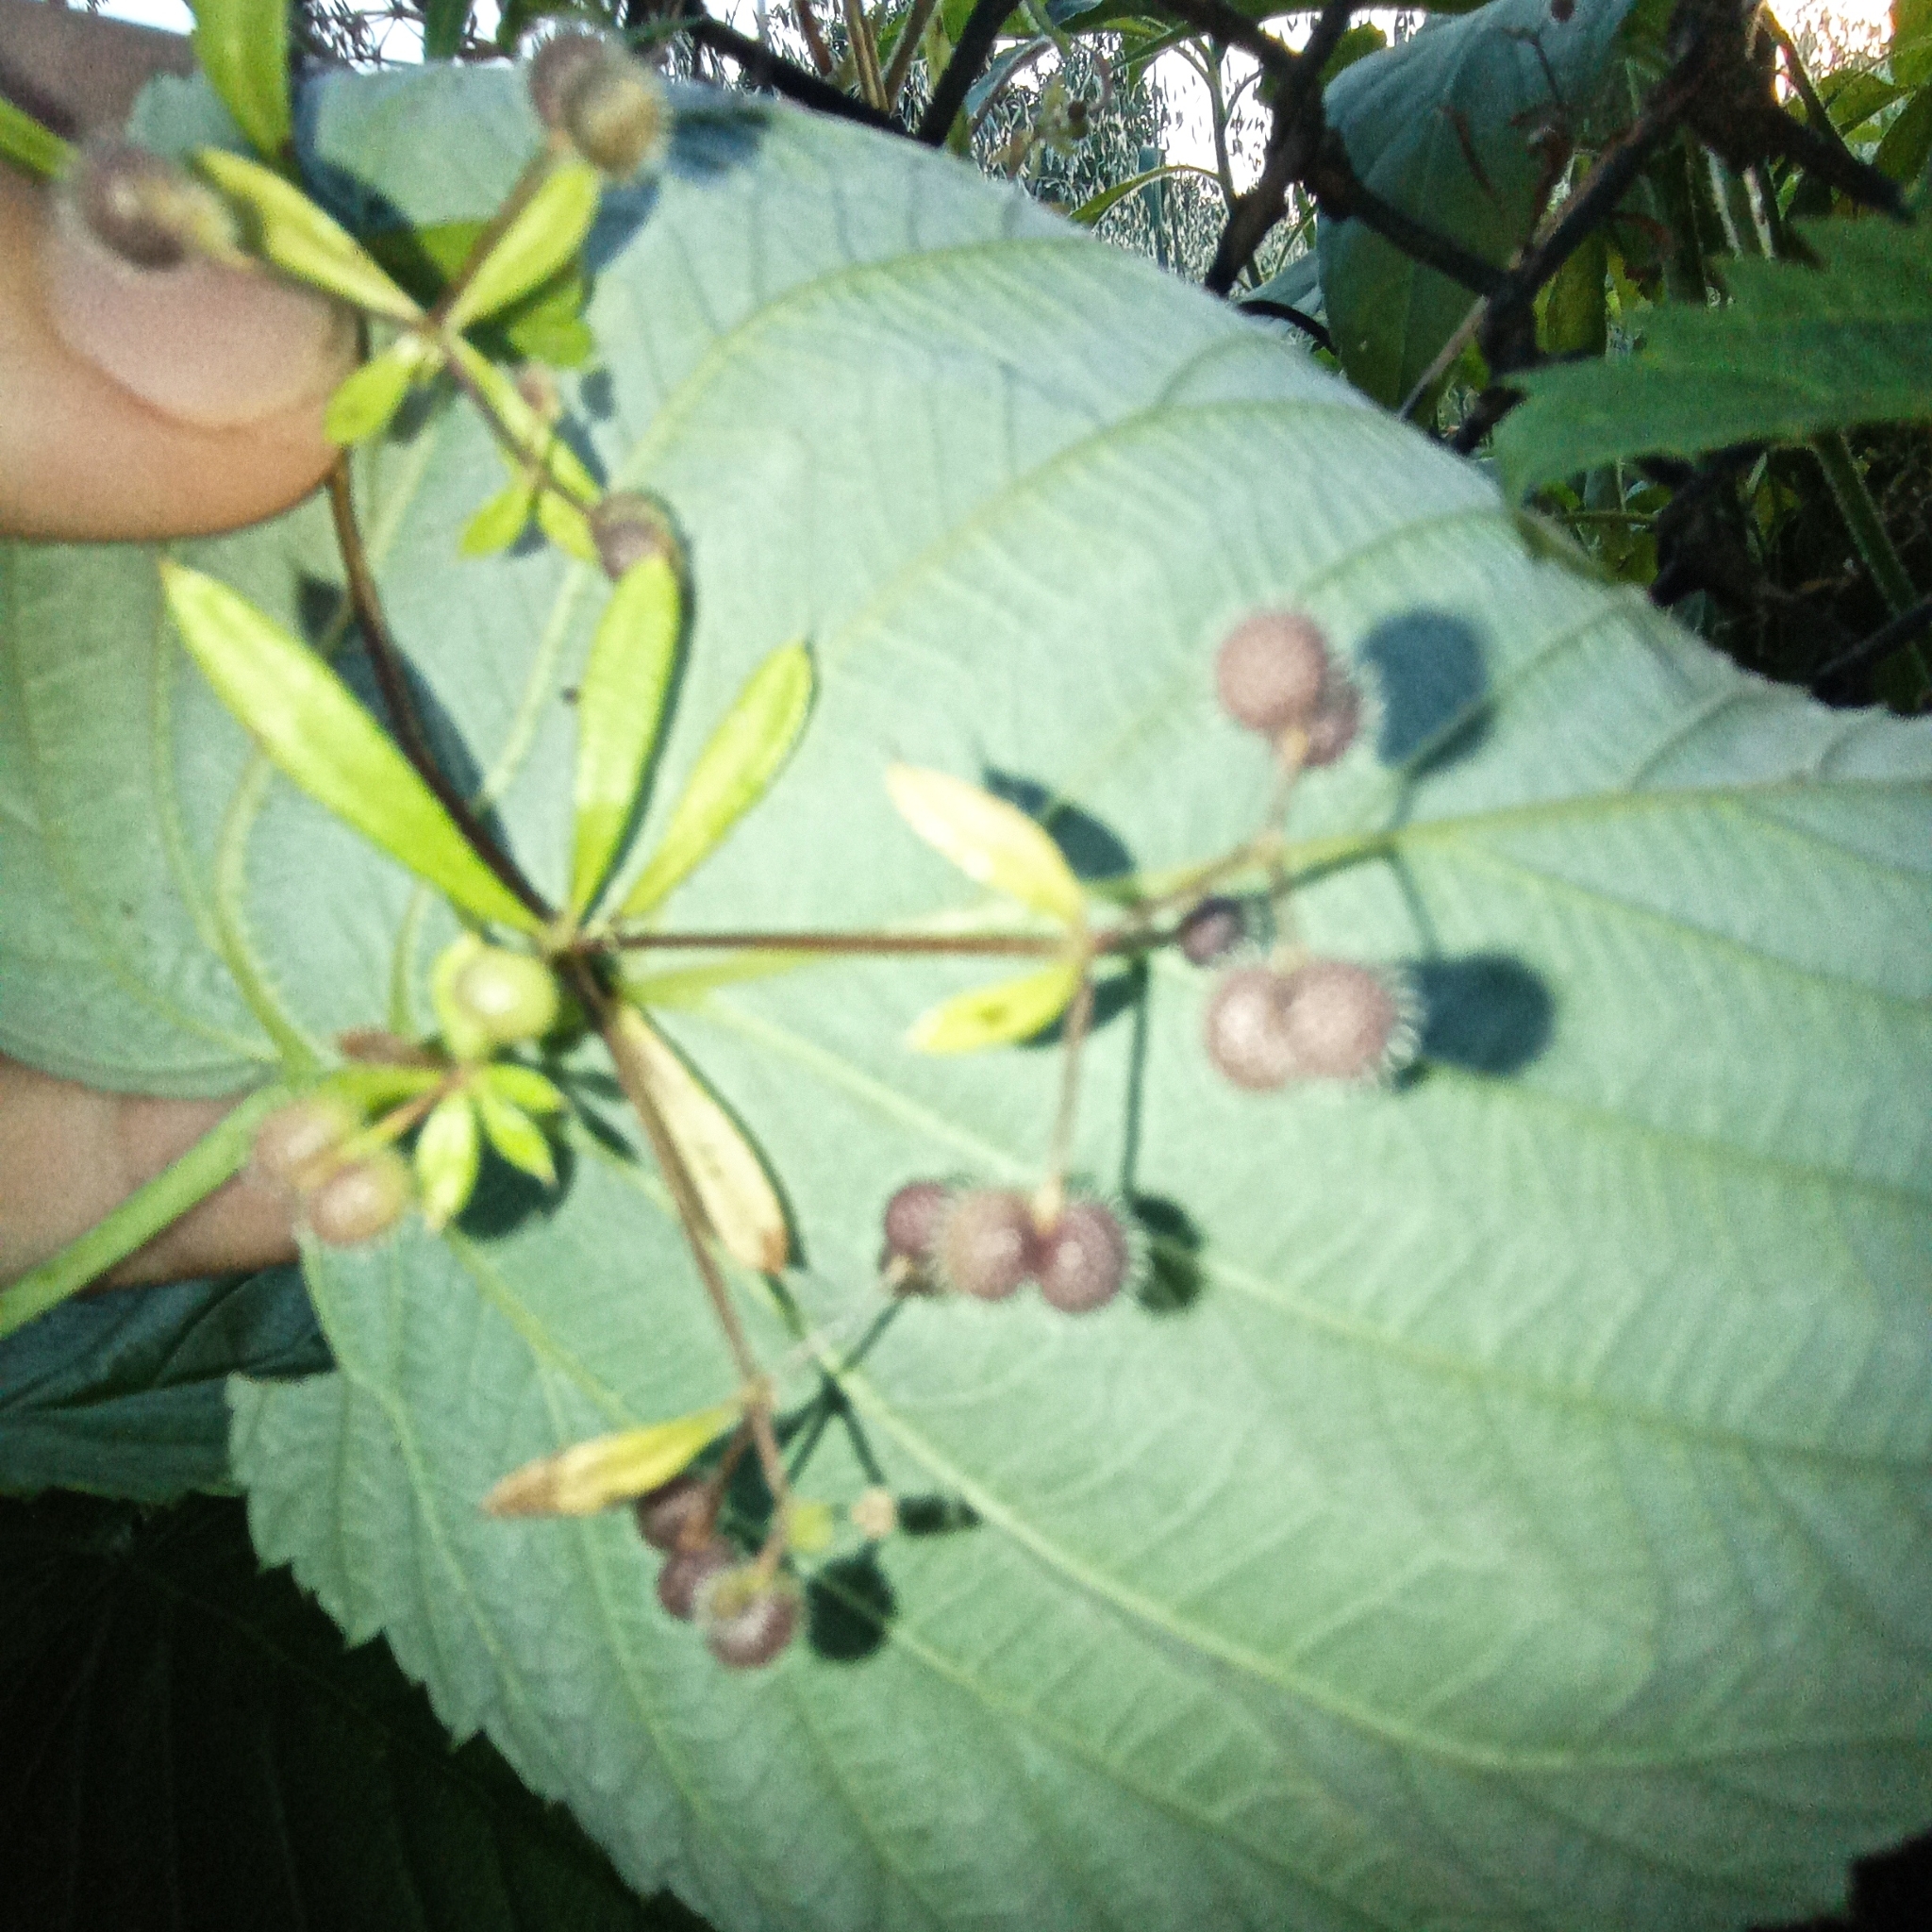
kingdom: Plantae
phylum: Tracheophyta
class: Magnoliopsida
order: Gentianales
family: Rubiaceae
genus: Galium
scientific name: Galium aparine
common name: Cleavers
